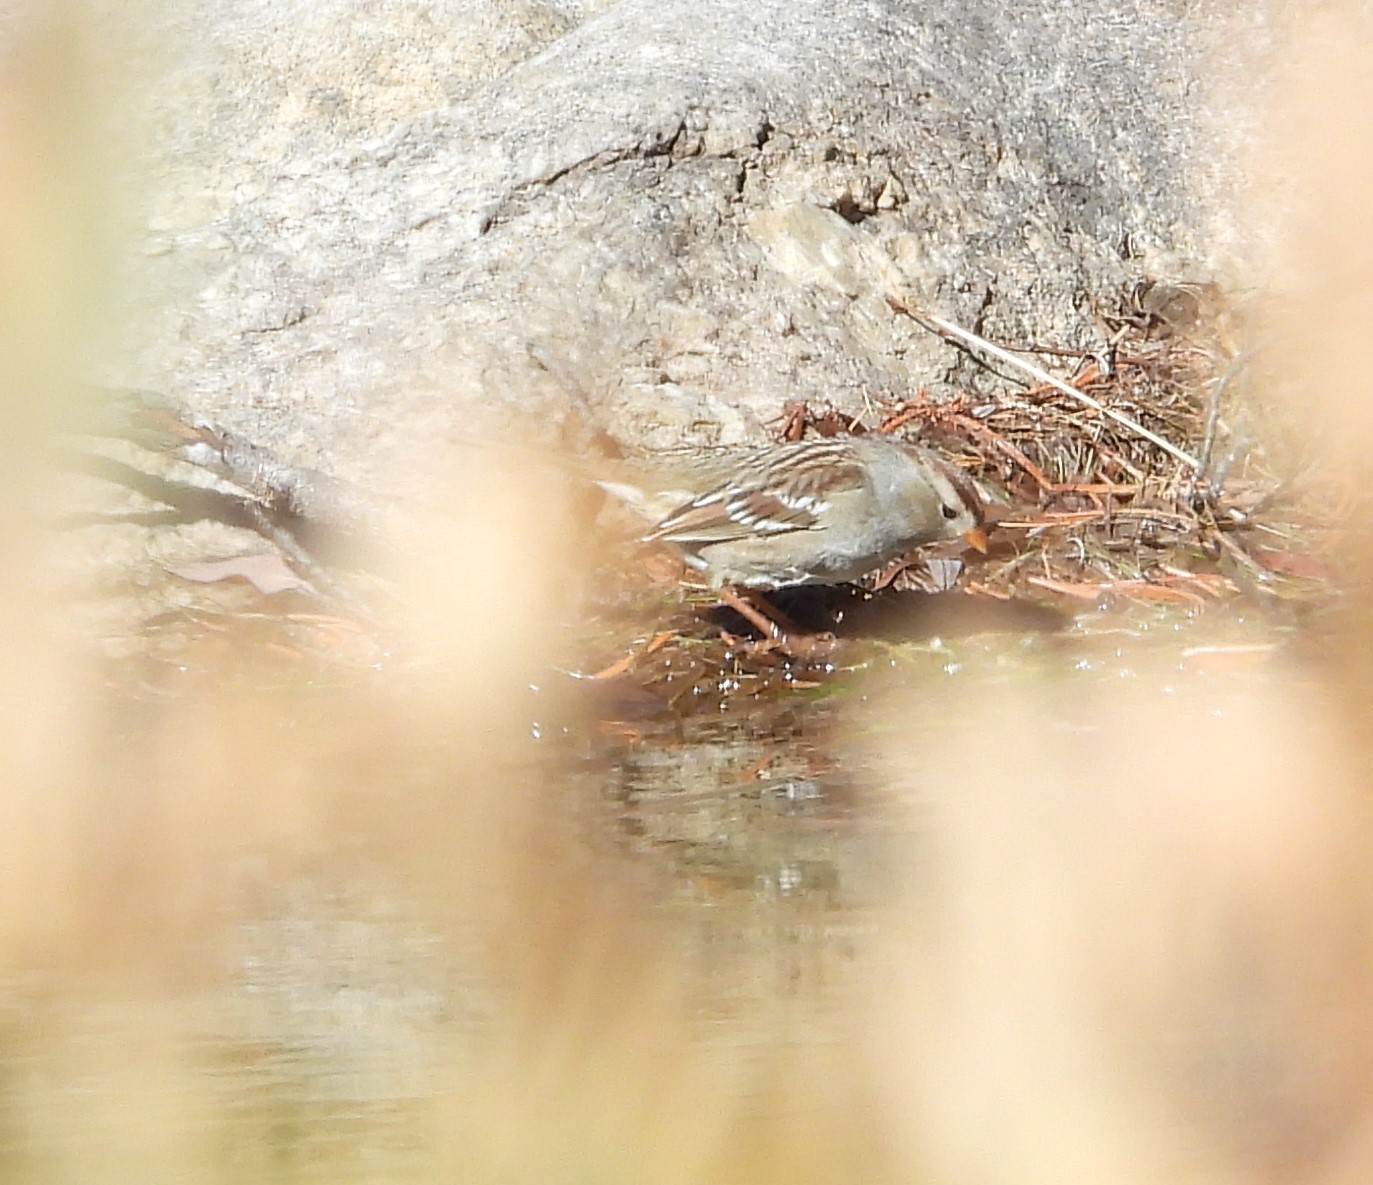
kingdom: Animalia
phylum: Chordata
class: Aves
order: Passeriformes
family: Passerellidae
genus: Zonotrichia
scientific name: Zonotrichia leucophrys
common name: White-crowned sparrow
